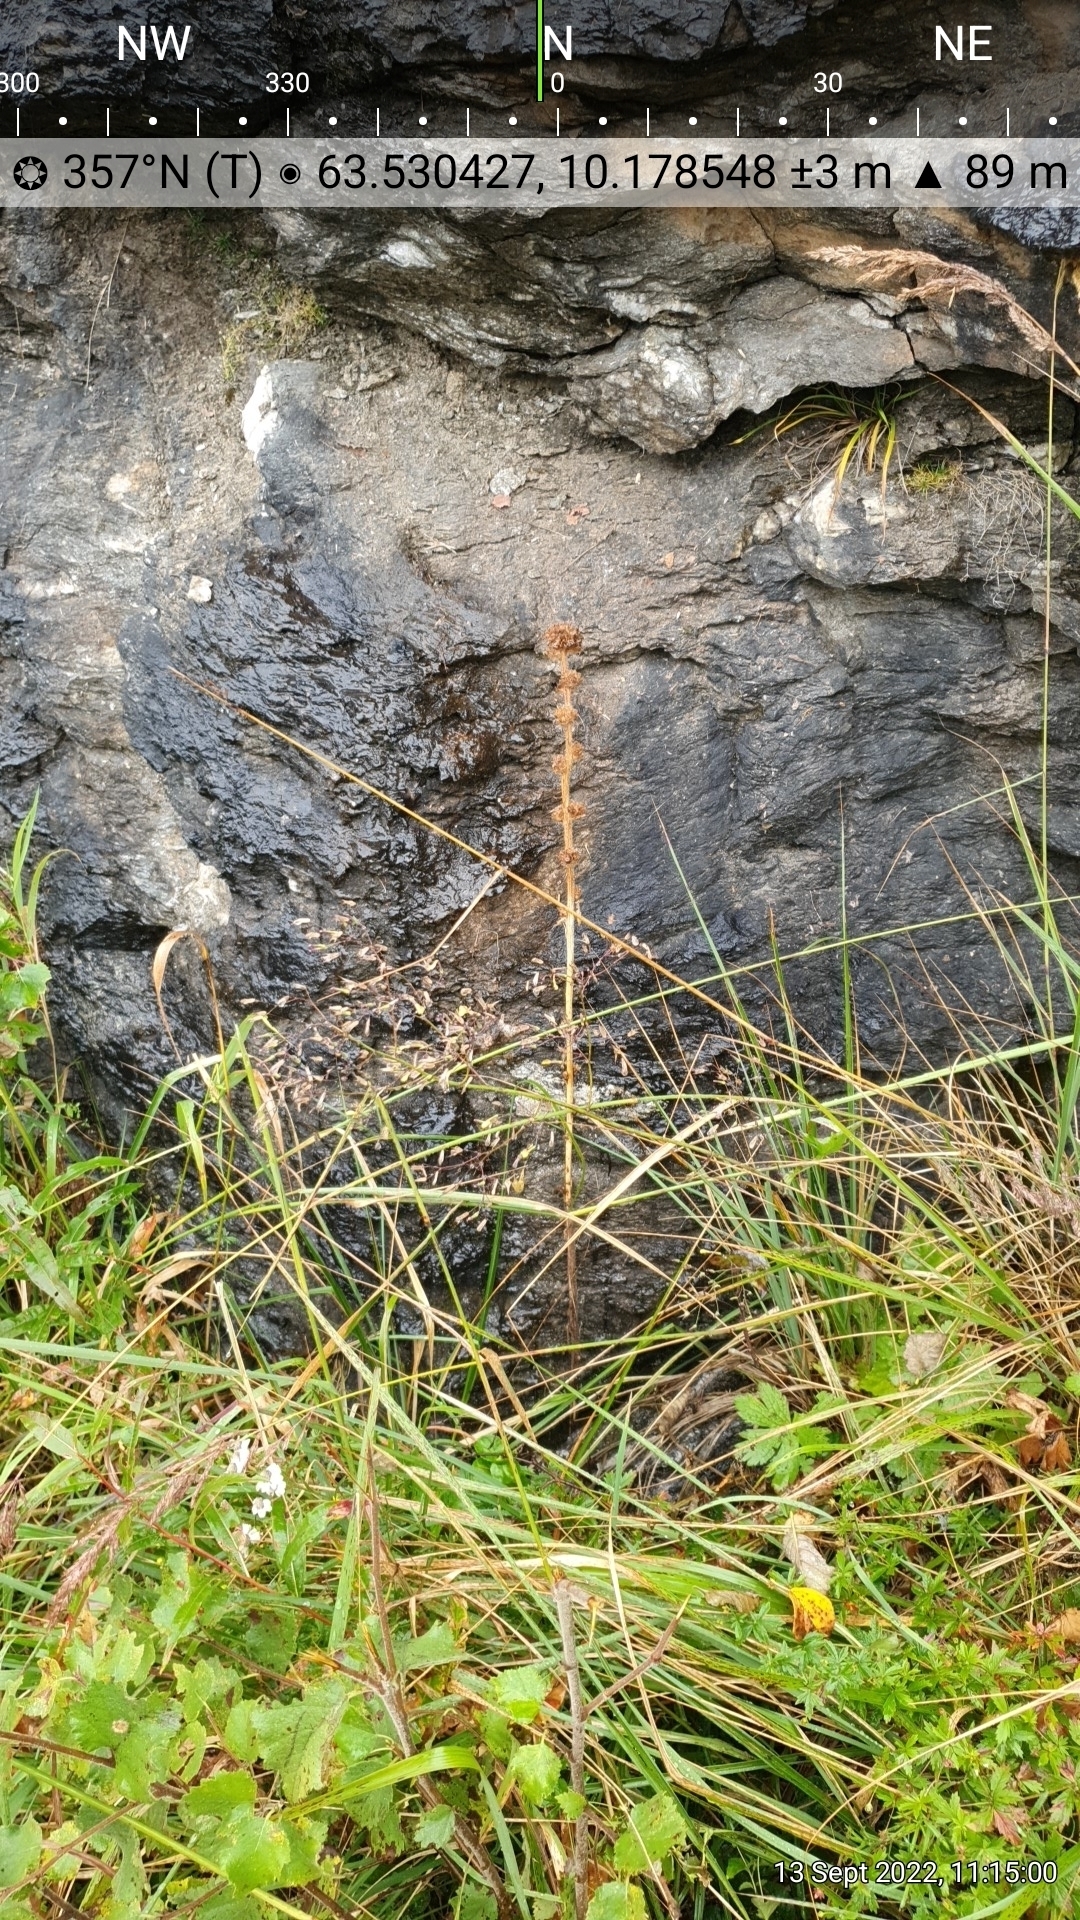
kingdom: Plantae
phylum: Tracheophyta
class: Magnoliopsida
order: Asterales
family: Campanulaceae
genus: Campanula
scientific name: Campanula cervicaria
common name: Bristly bellflower
